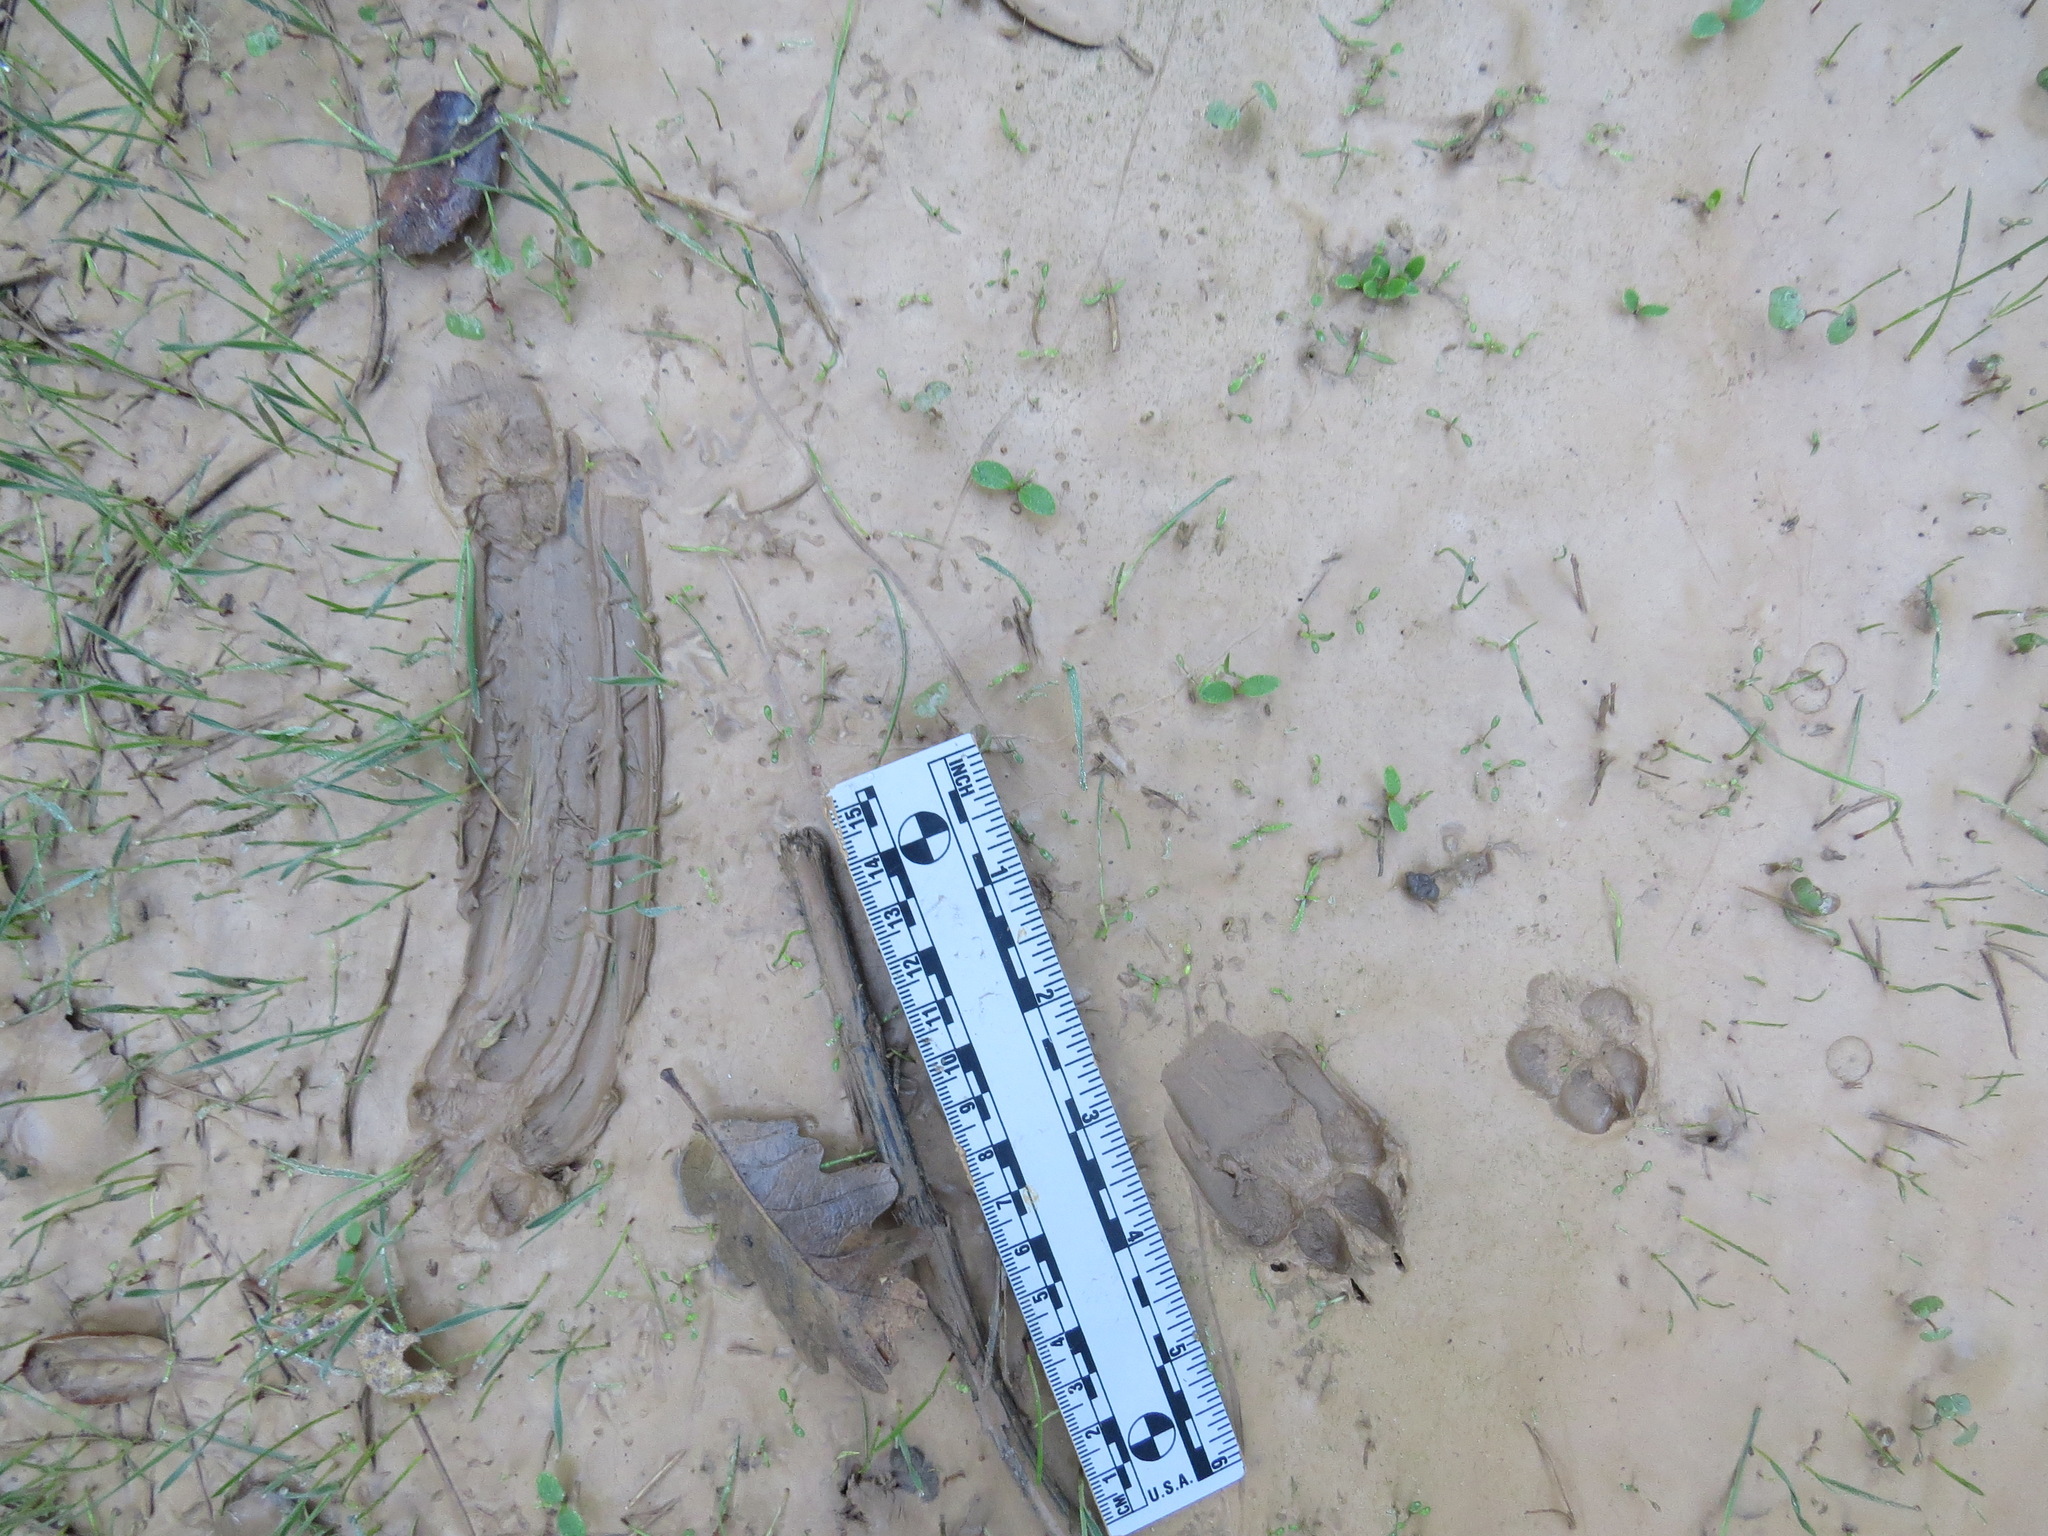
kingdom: Animalia
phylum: Chordata
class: Mammalia
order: Carnivora
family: Canidae
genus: Urocyon
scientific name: Urocyon cinereoargenteus
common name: Gray fox
